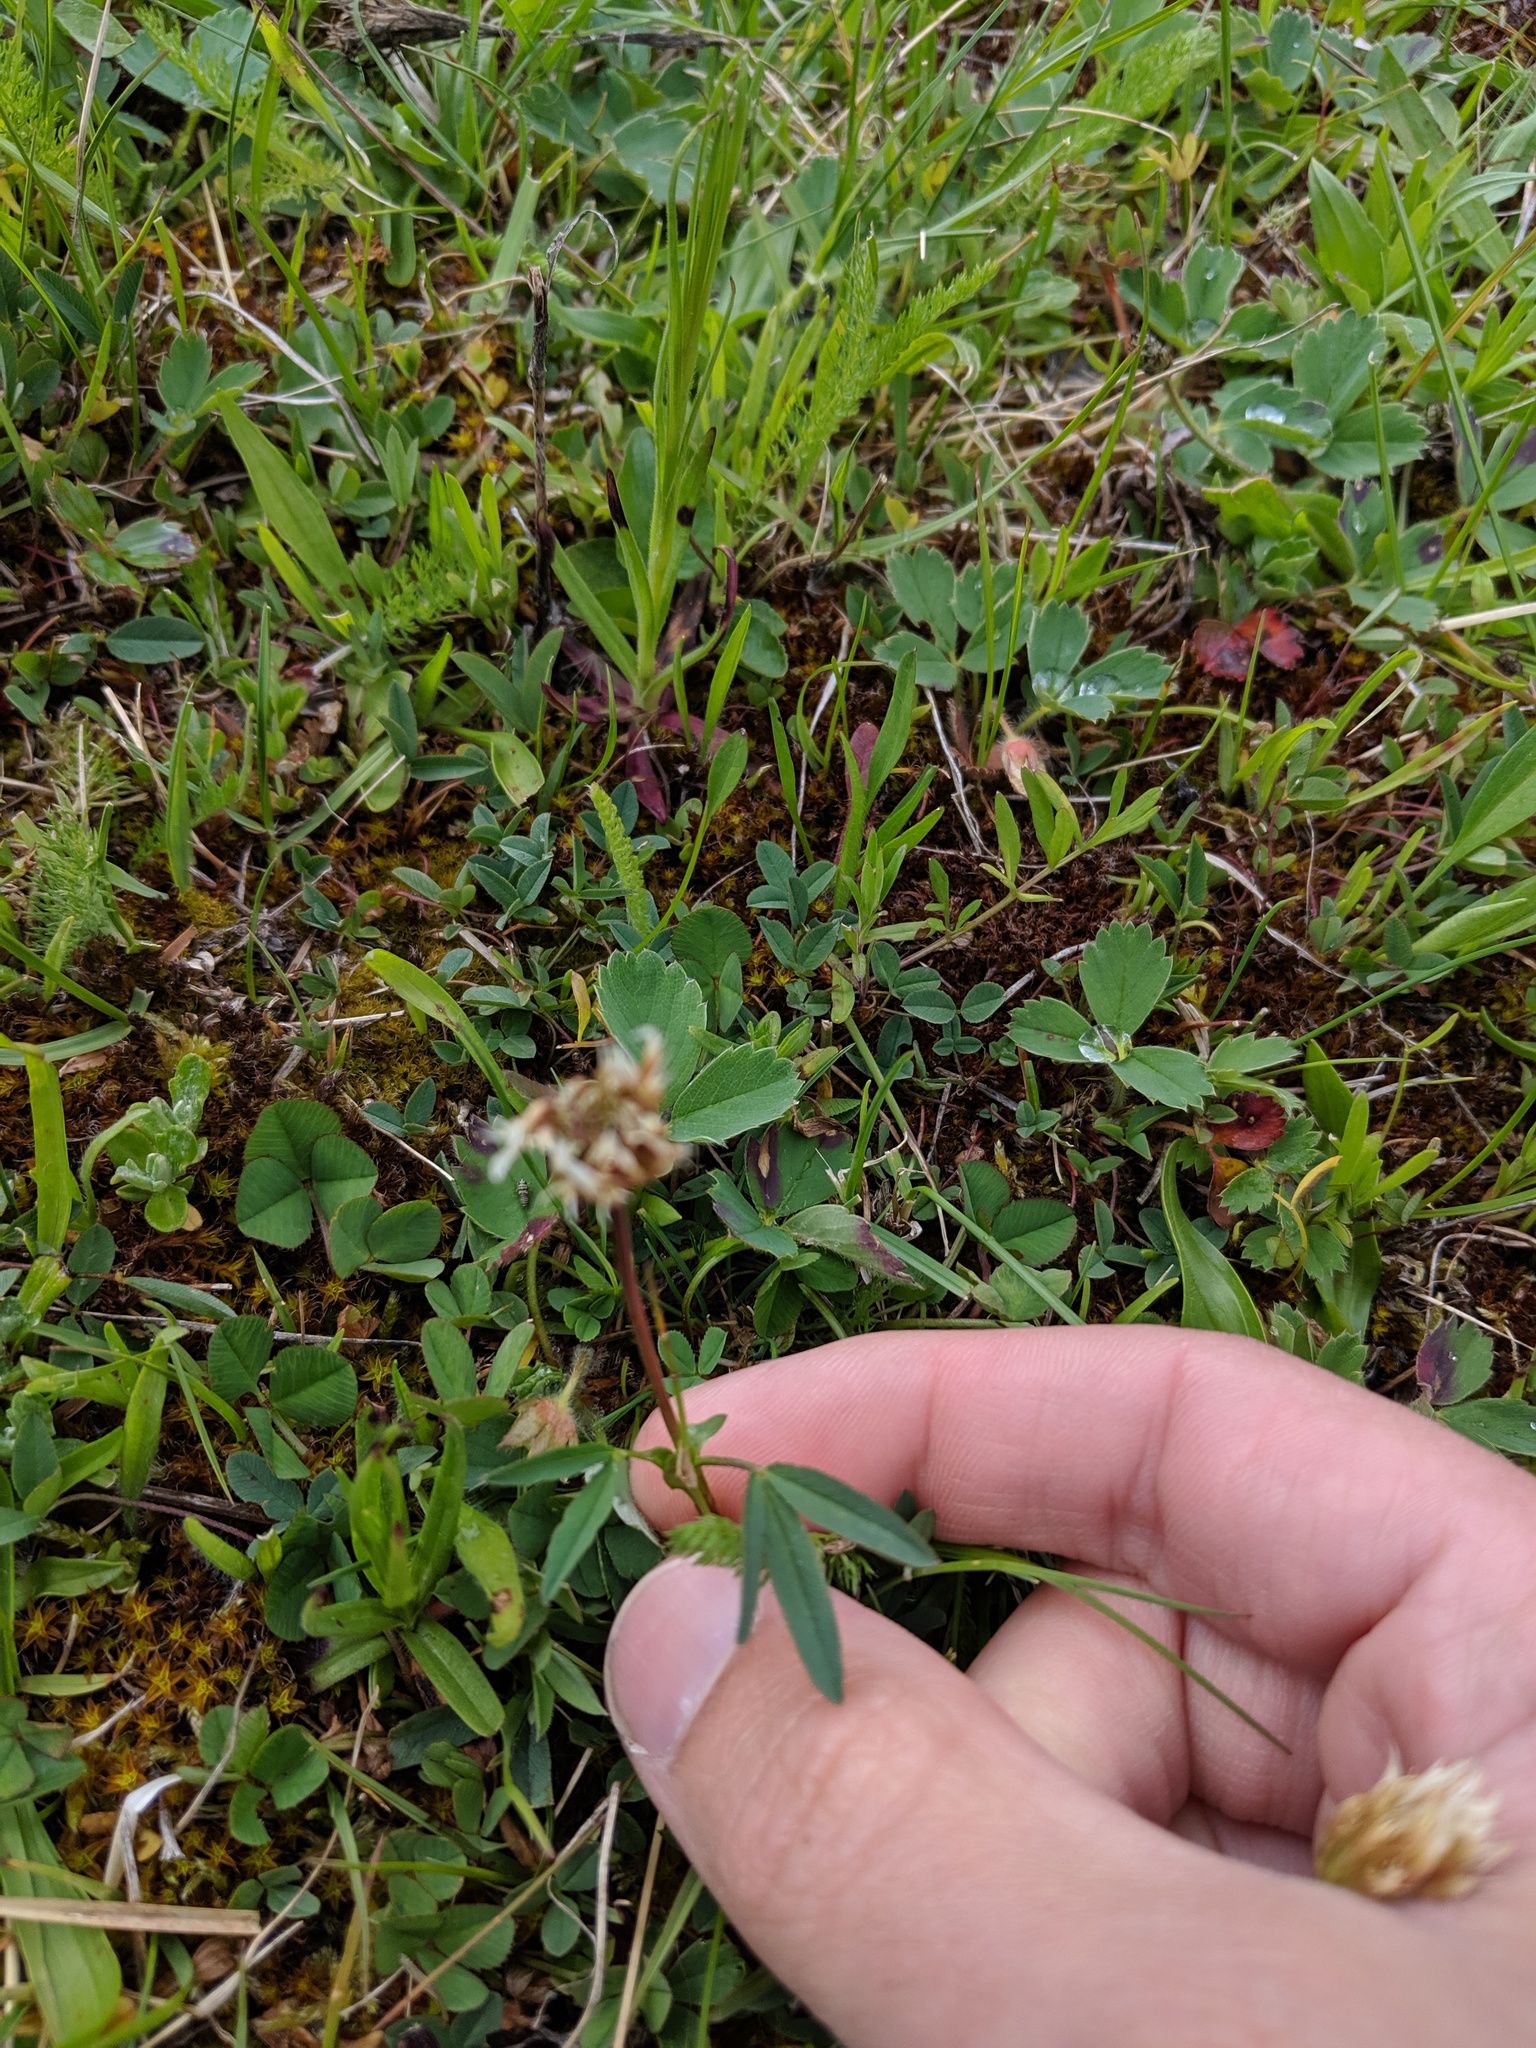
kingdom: Plantae
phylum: Tracheophyta
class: Magnoliopsida
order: Fabales
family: Fabaceae
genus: Trifolium
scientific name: Trifolium longipes
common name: Long-stalk clover
